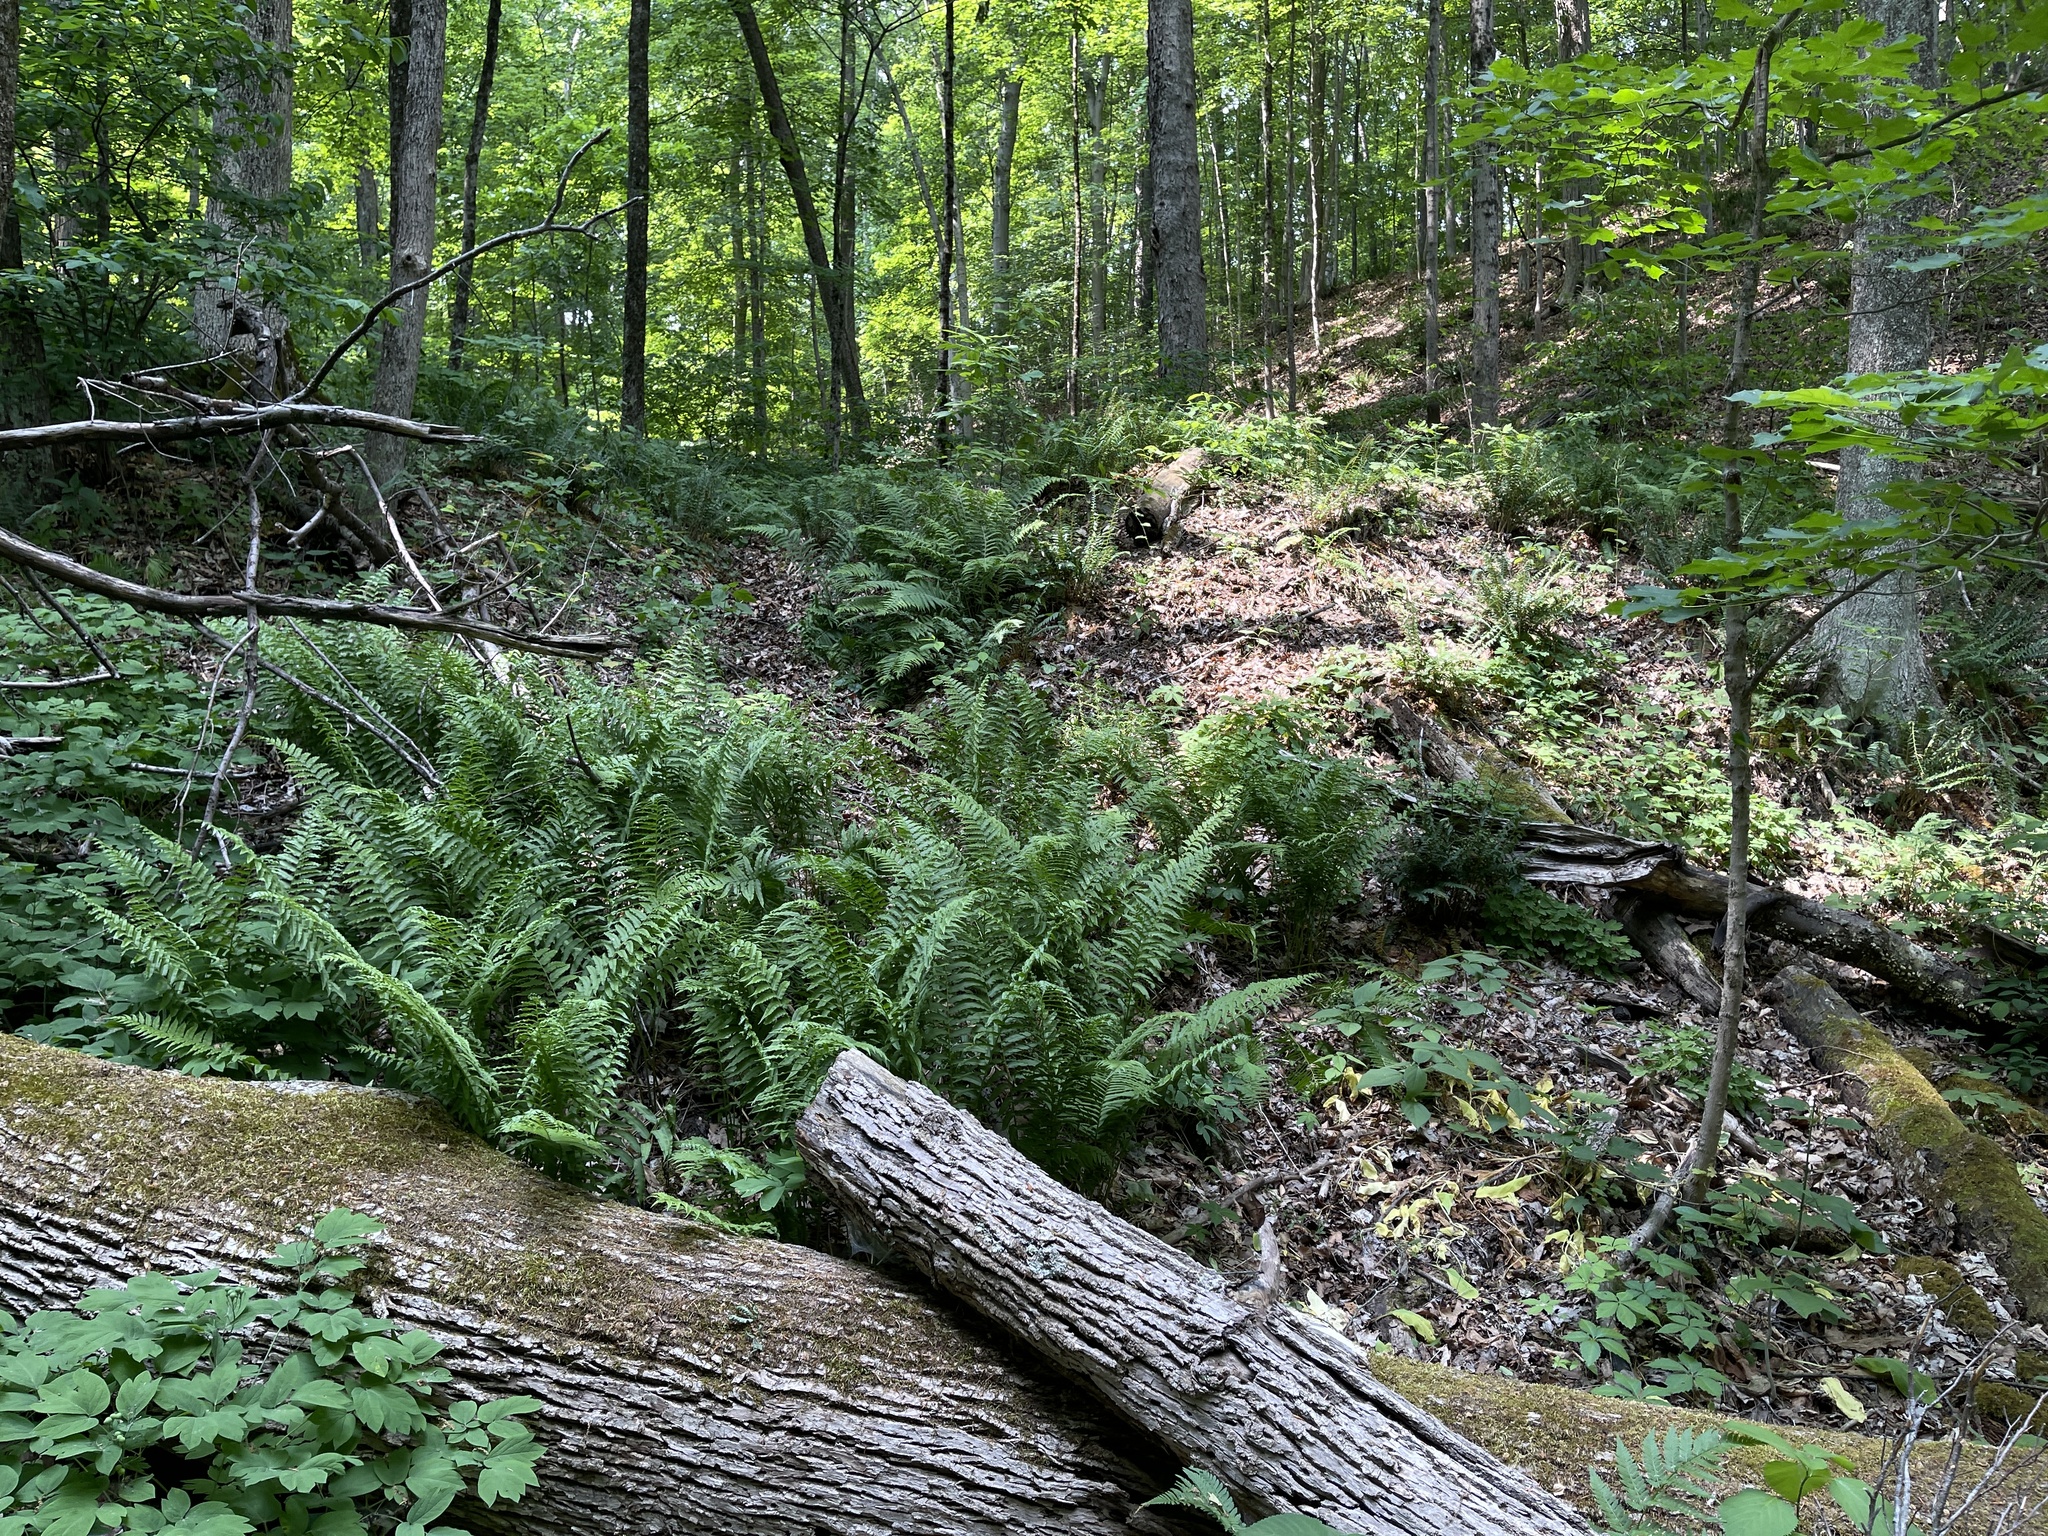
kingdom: Plantae
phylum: Tracheophyta
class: Polypodiopsida
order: Polypodiales
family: Diplaziopsidaceae
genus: Homalosorus
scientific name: Homalosorus pycnocarpos
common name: Glade fern
